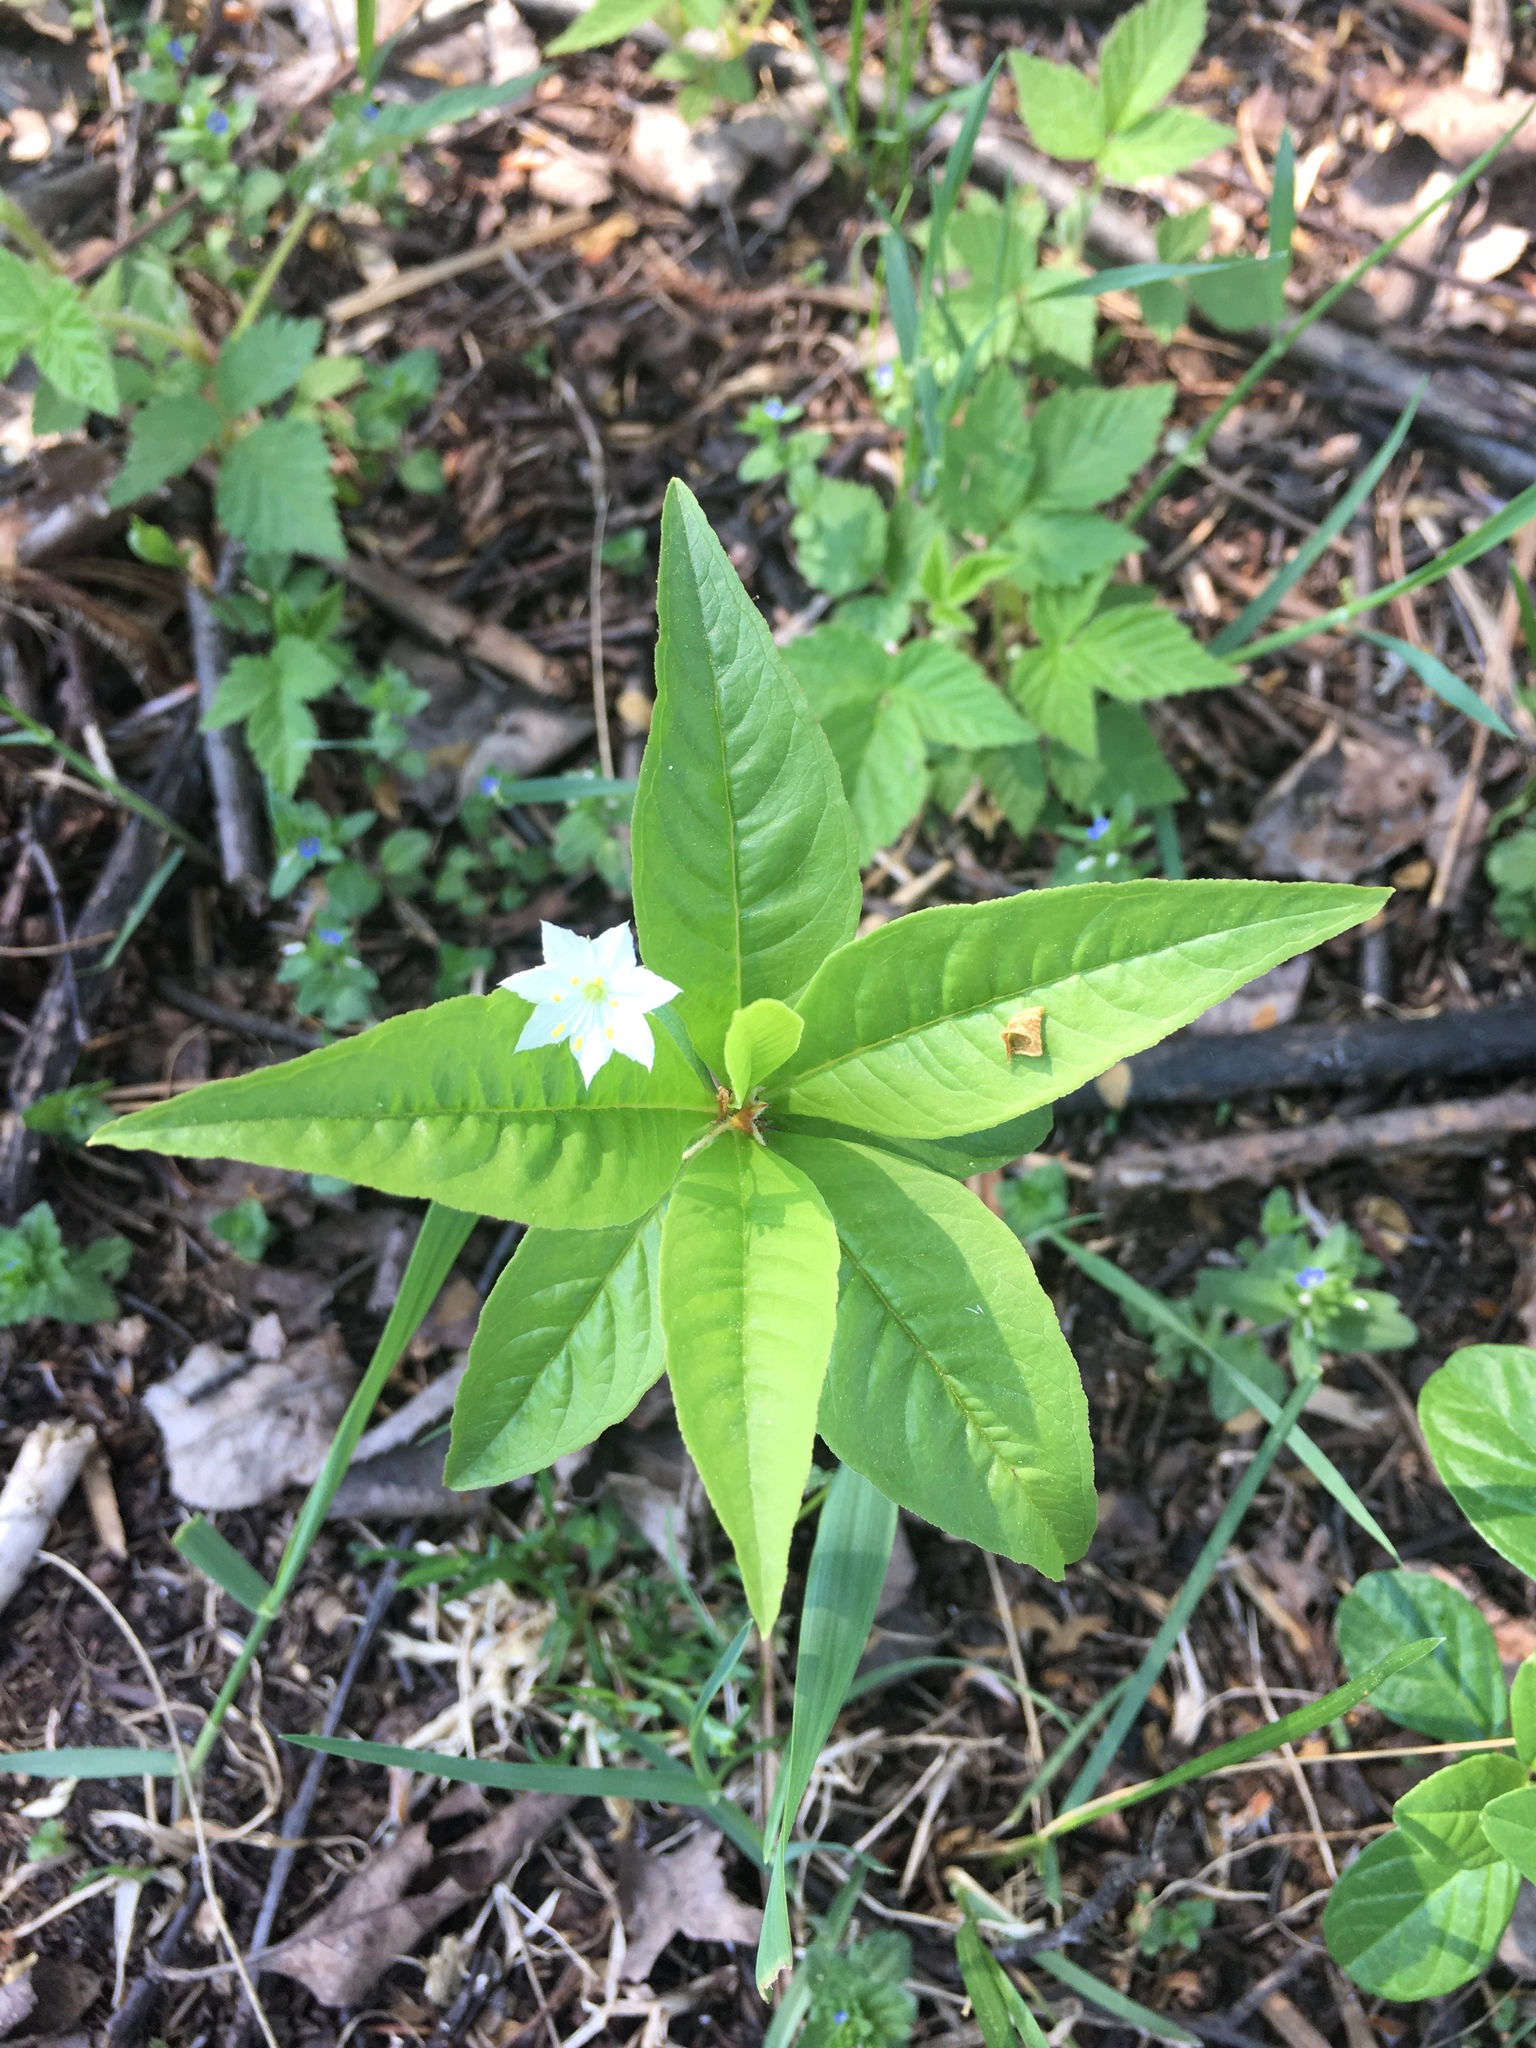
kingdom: Plantae
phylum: Tracheophyta
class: Magnoliopsida
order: Ericales
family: Primulaceae
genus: Lysimachia
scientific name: Lysimachia borealis
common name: American starflower
